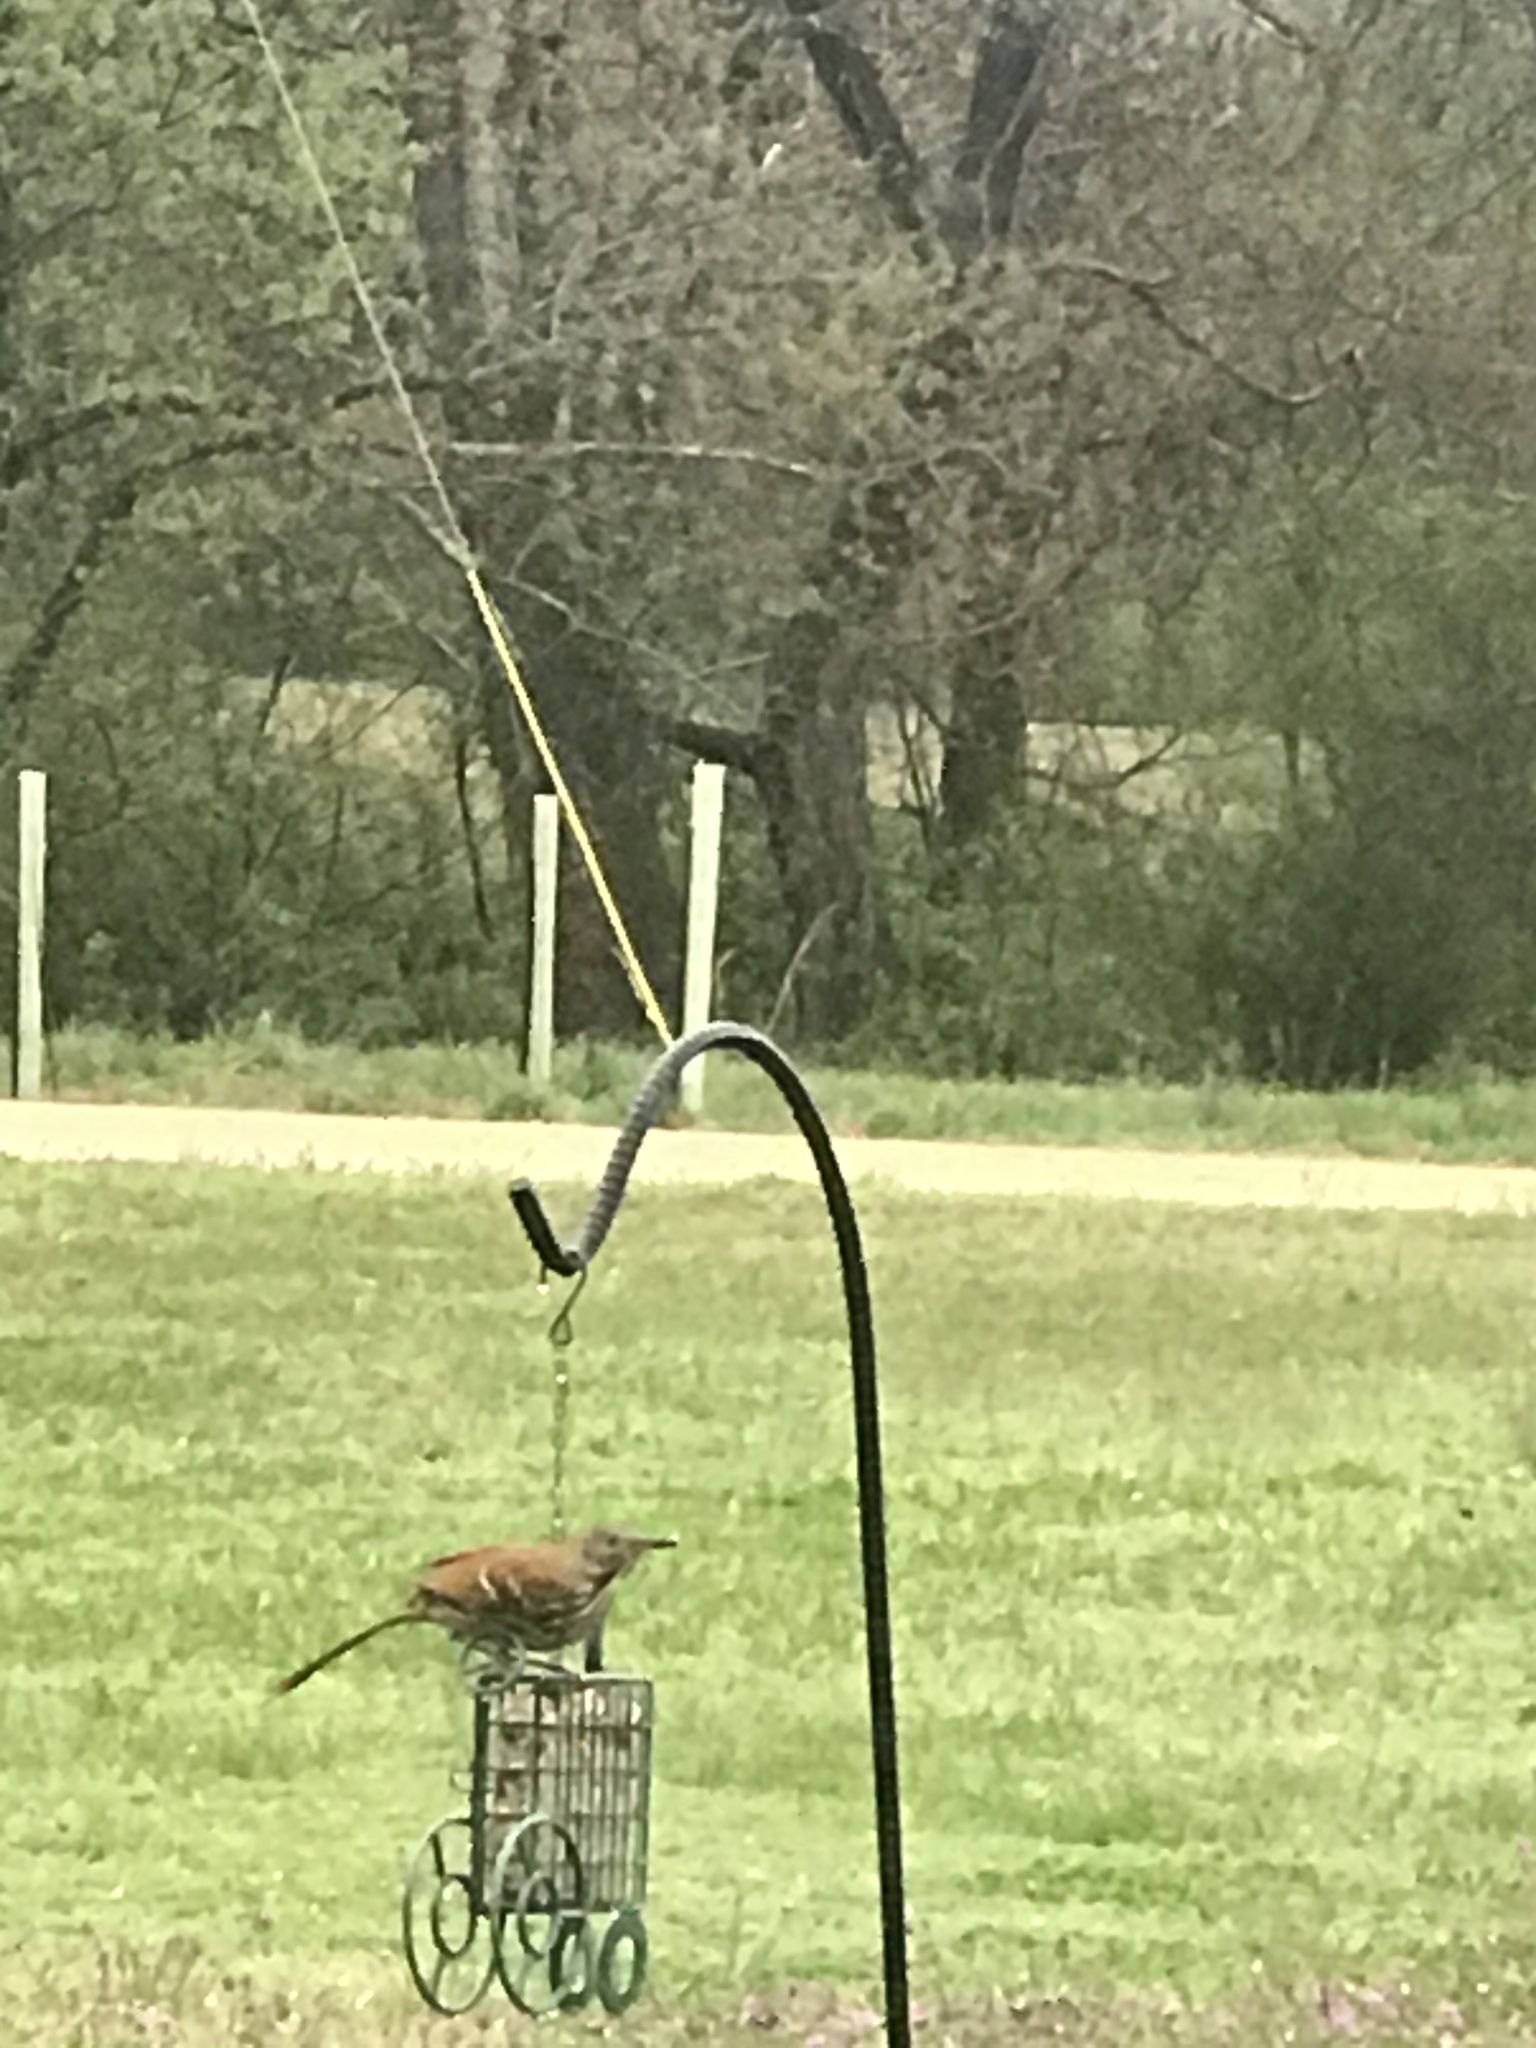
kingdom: Animalia
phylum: Chordata
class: Aves
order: Passeriformes
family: Mimidae
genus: Toxostoma
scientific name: Toxostoma rufum
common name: Brown thrasher
